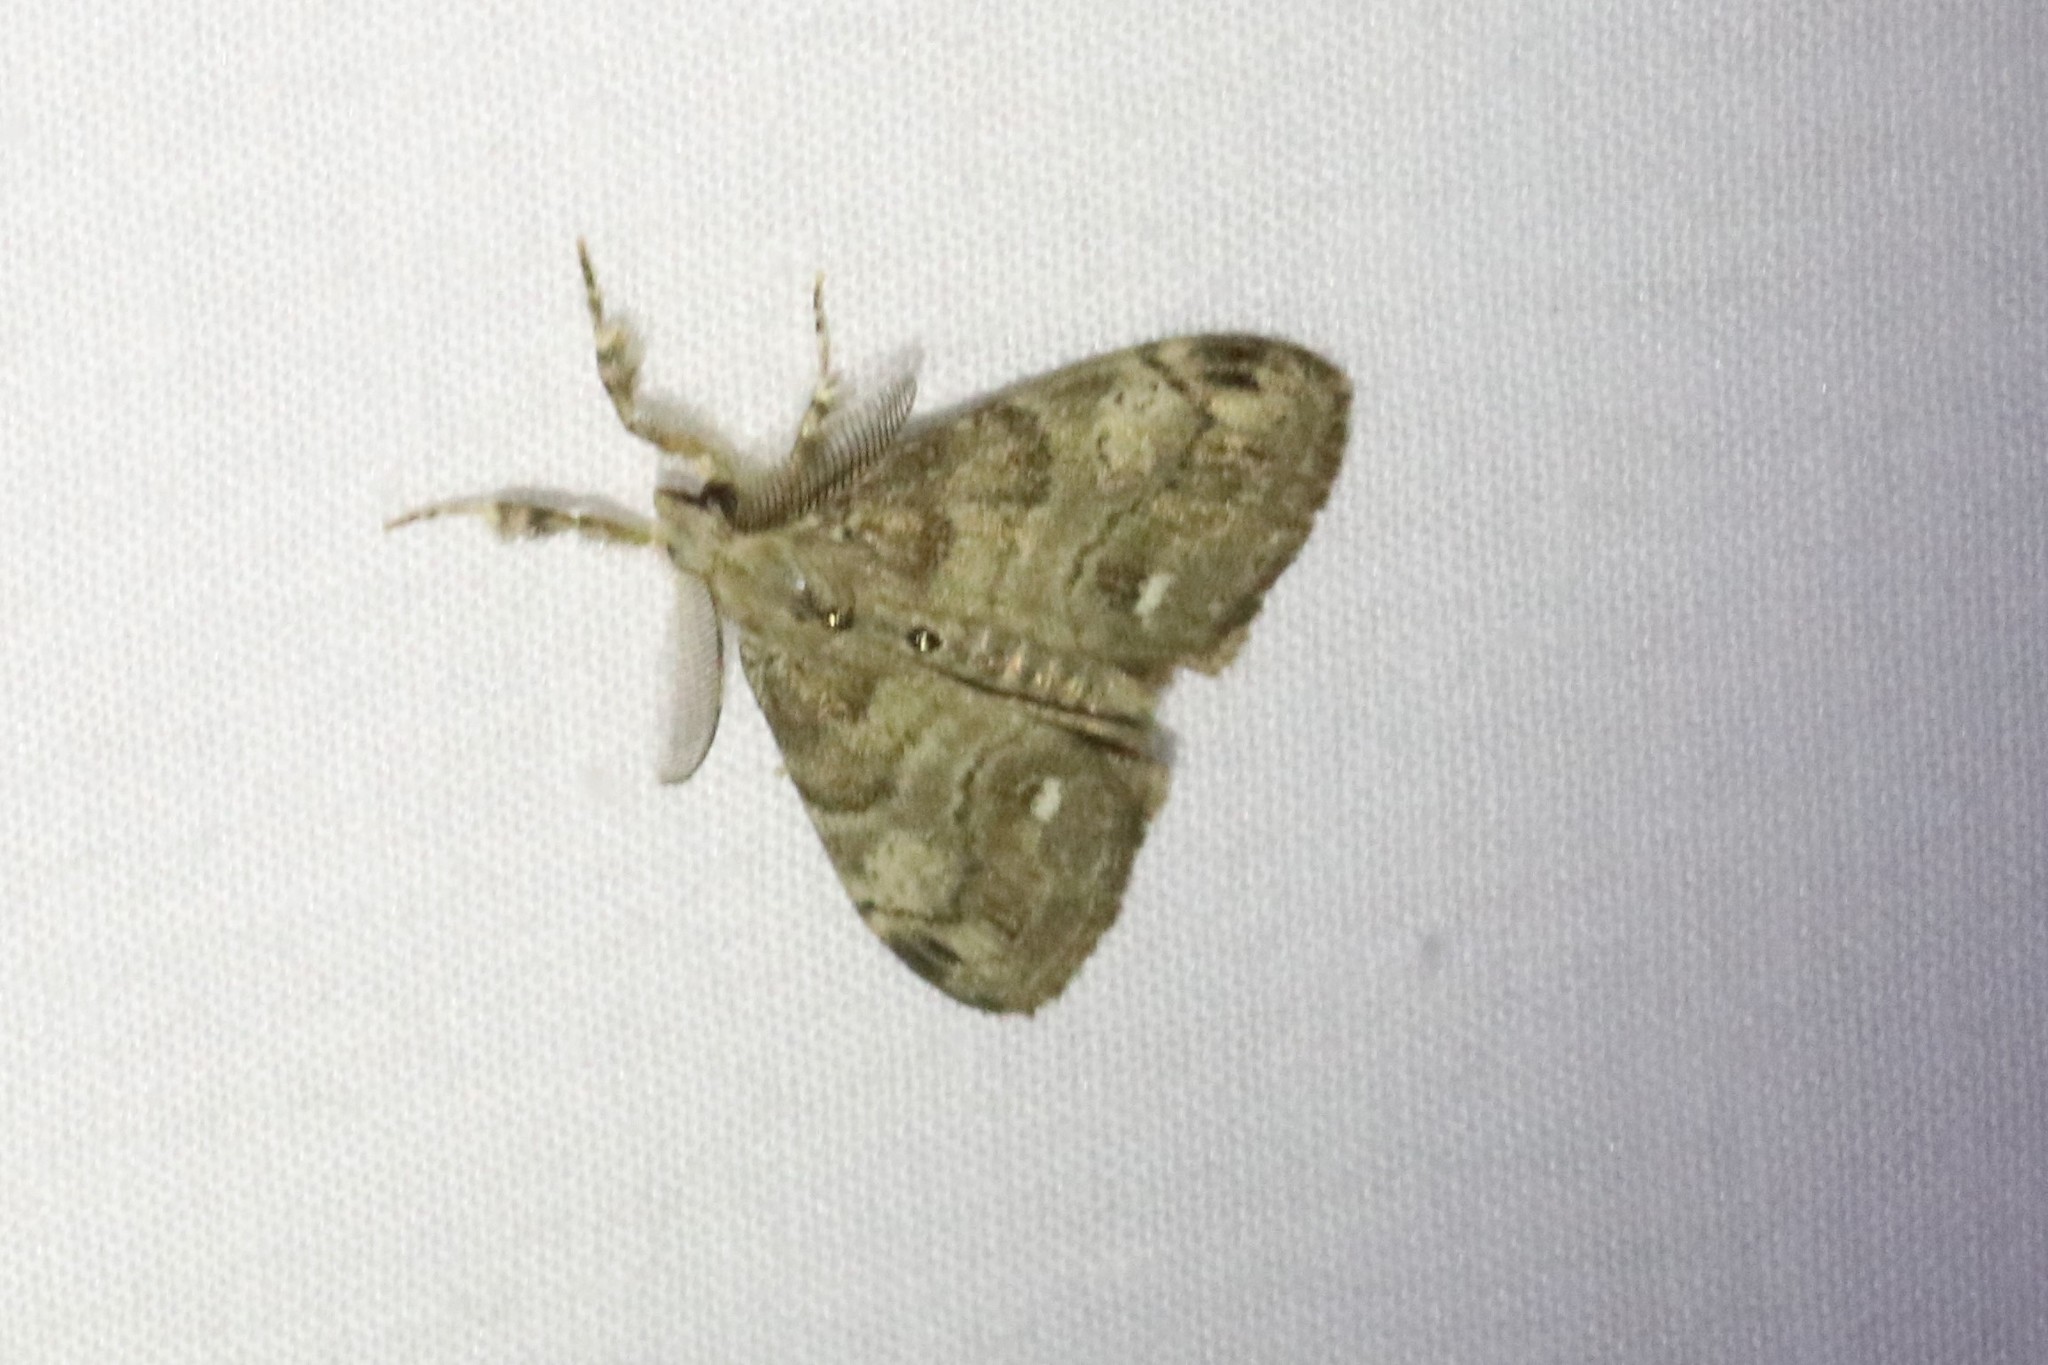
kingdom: Animalia
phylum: Arthropoda
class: Insecta
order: Lepidoptera
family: Erebidae
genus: Orgyia
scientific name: Orgyia leucostigma
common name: White-marked tussock moth
